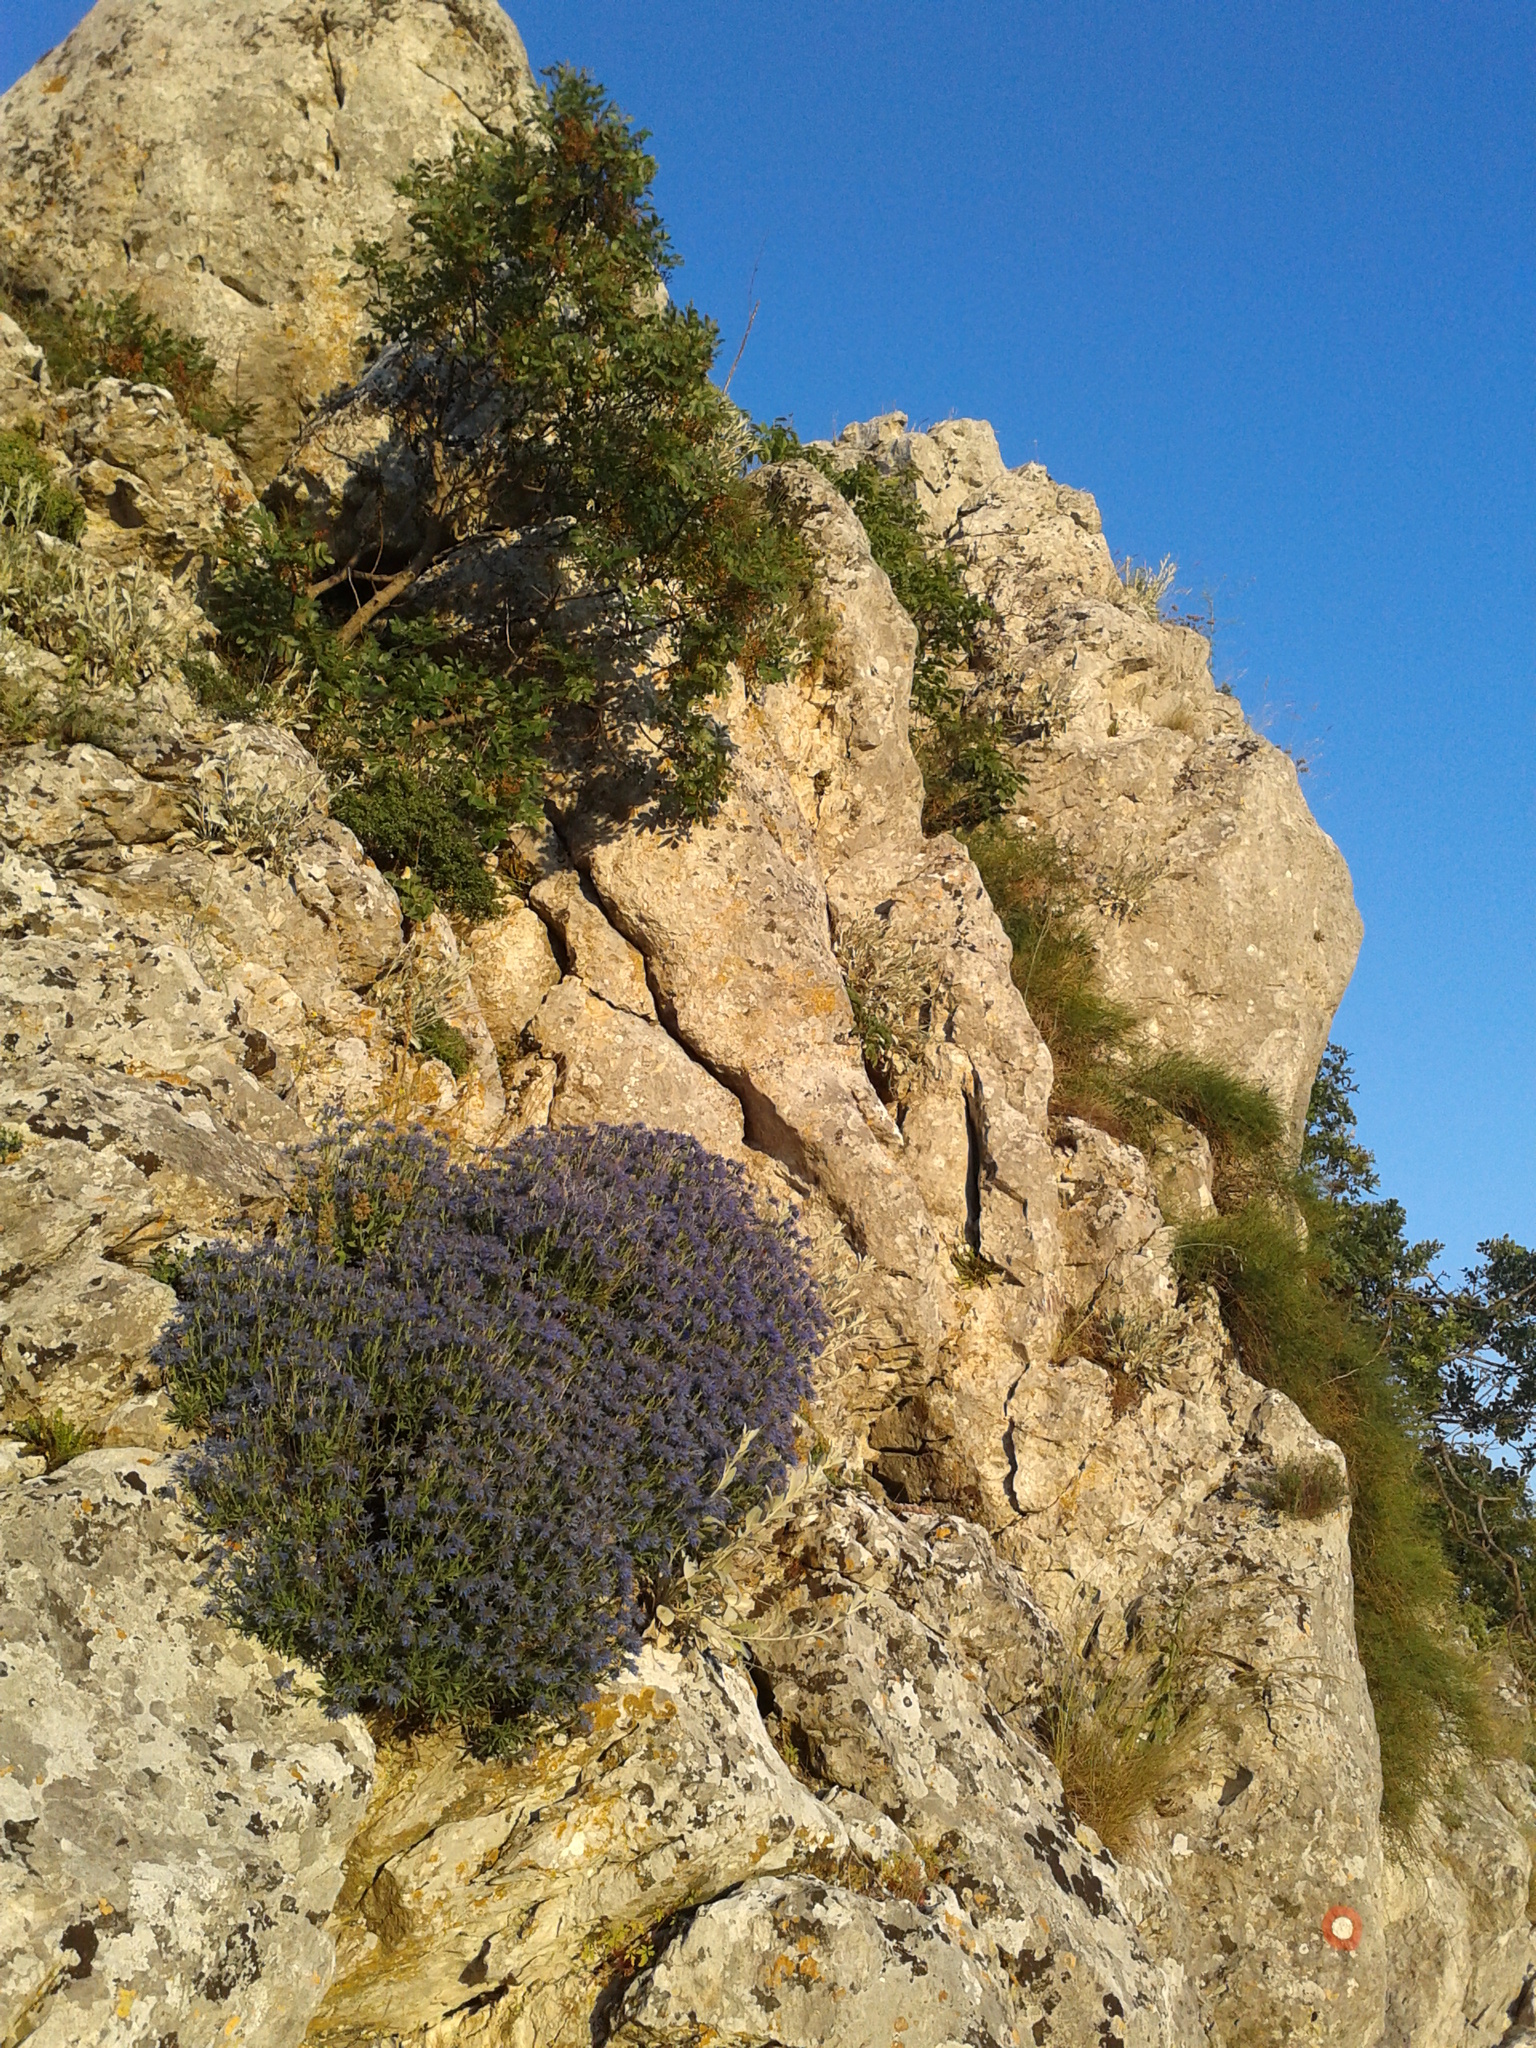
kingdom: Plantae
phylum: Tracheophyta
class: Magnoliopsida
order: Boraginales
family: Boraginaceae
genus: Moltkia
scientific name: Moltkia petraea
